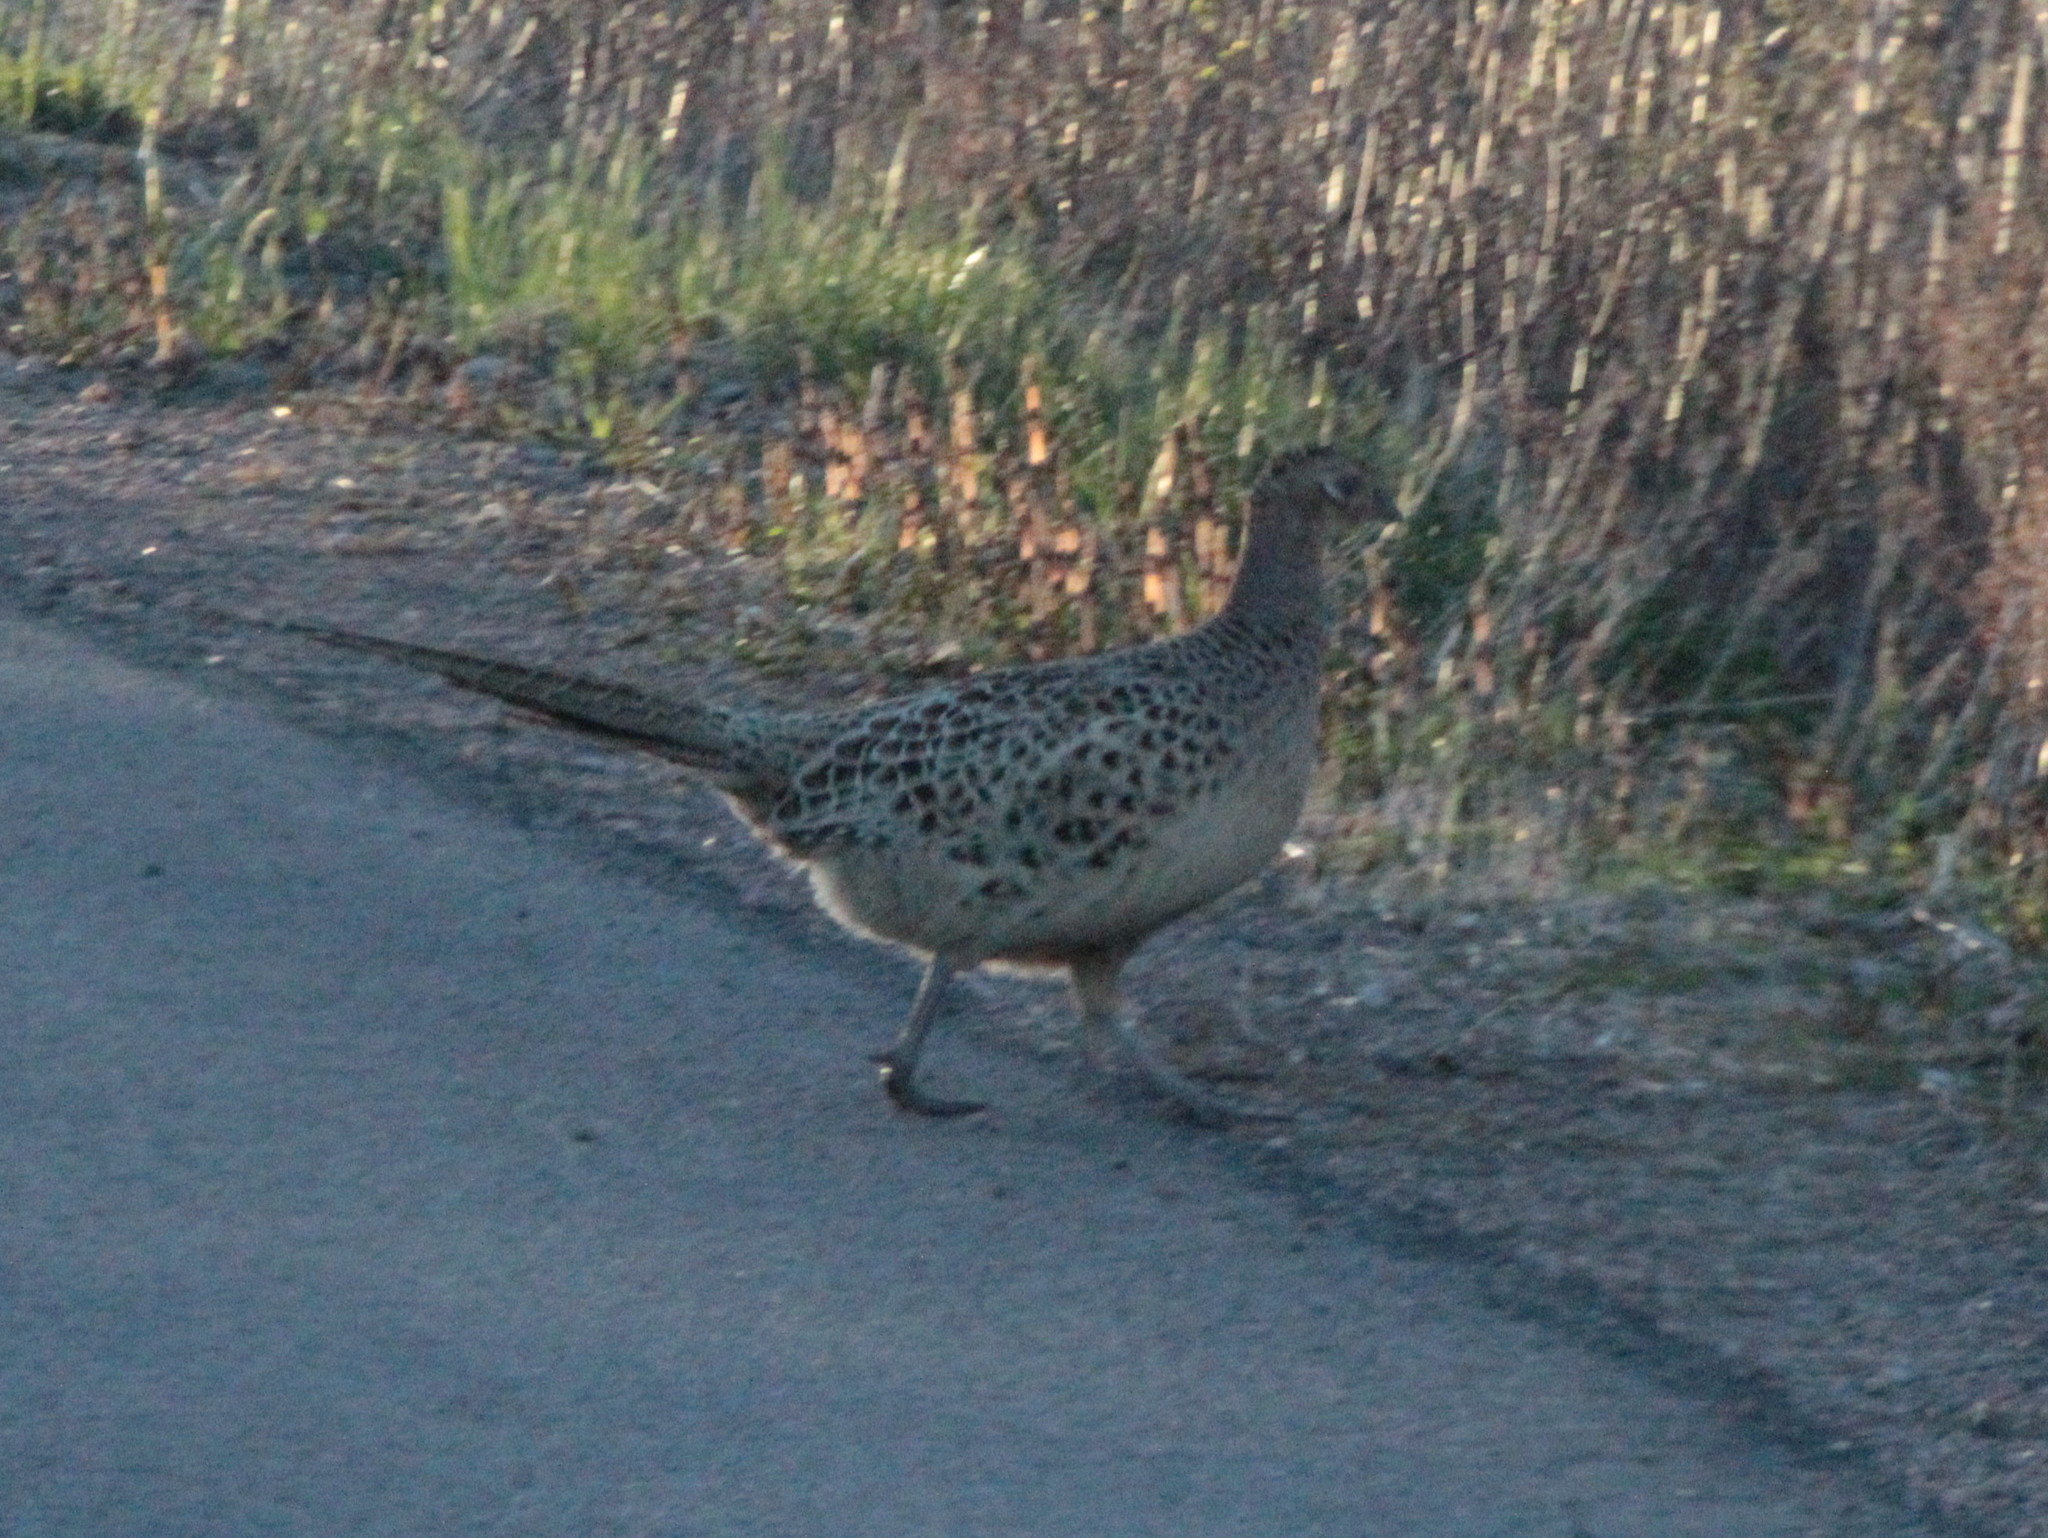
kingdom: Animalia
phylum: Chordata
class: Aves
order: Galliformes
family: Phasianidae
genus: Phasianus
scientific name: Phasianus colchicus
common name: Common pheasant
